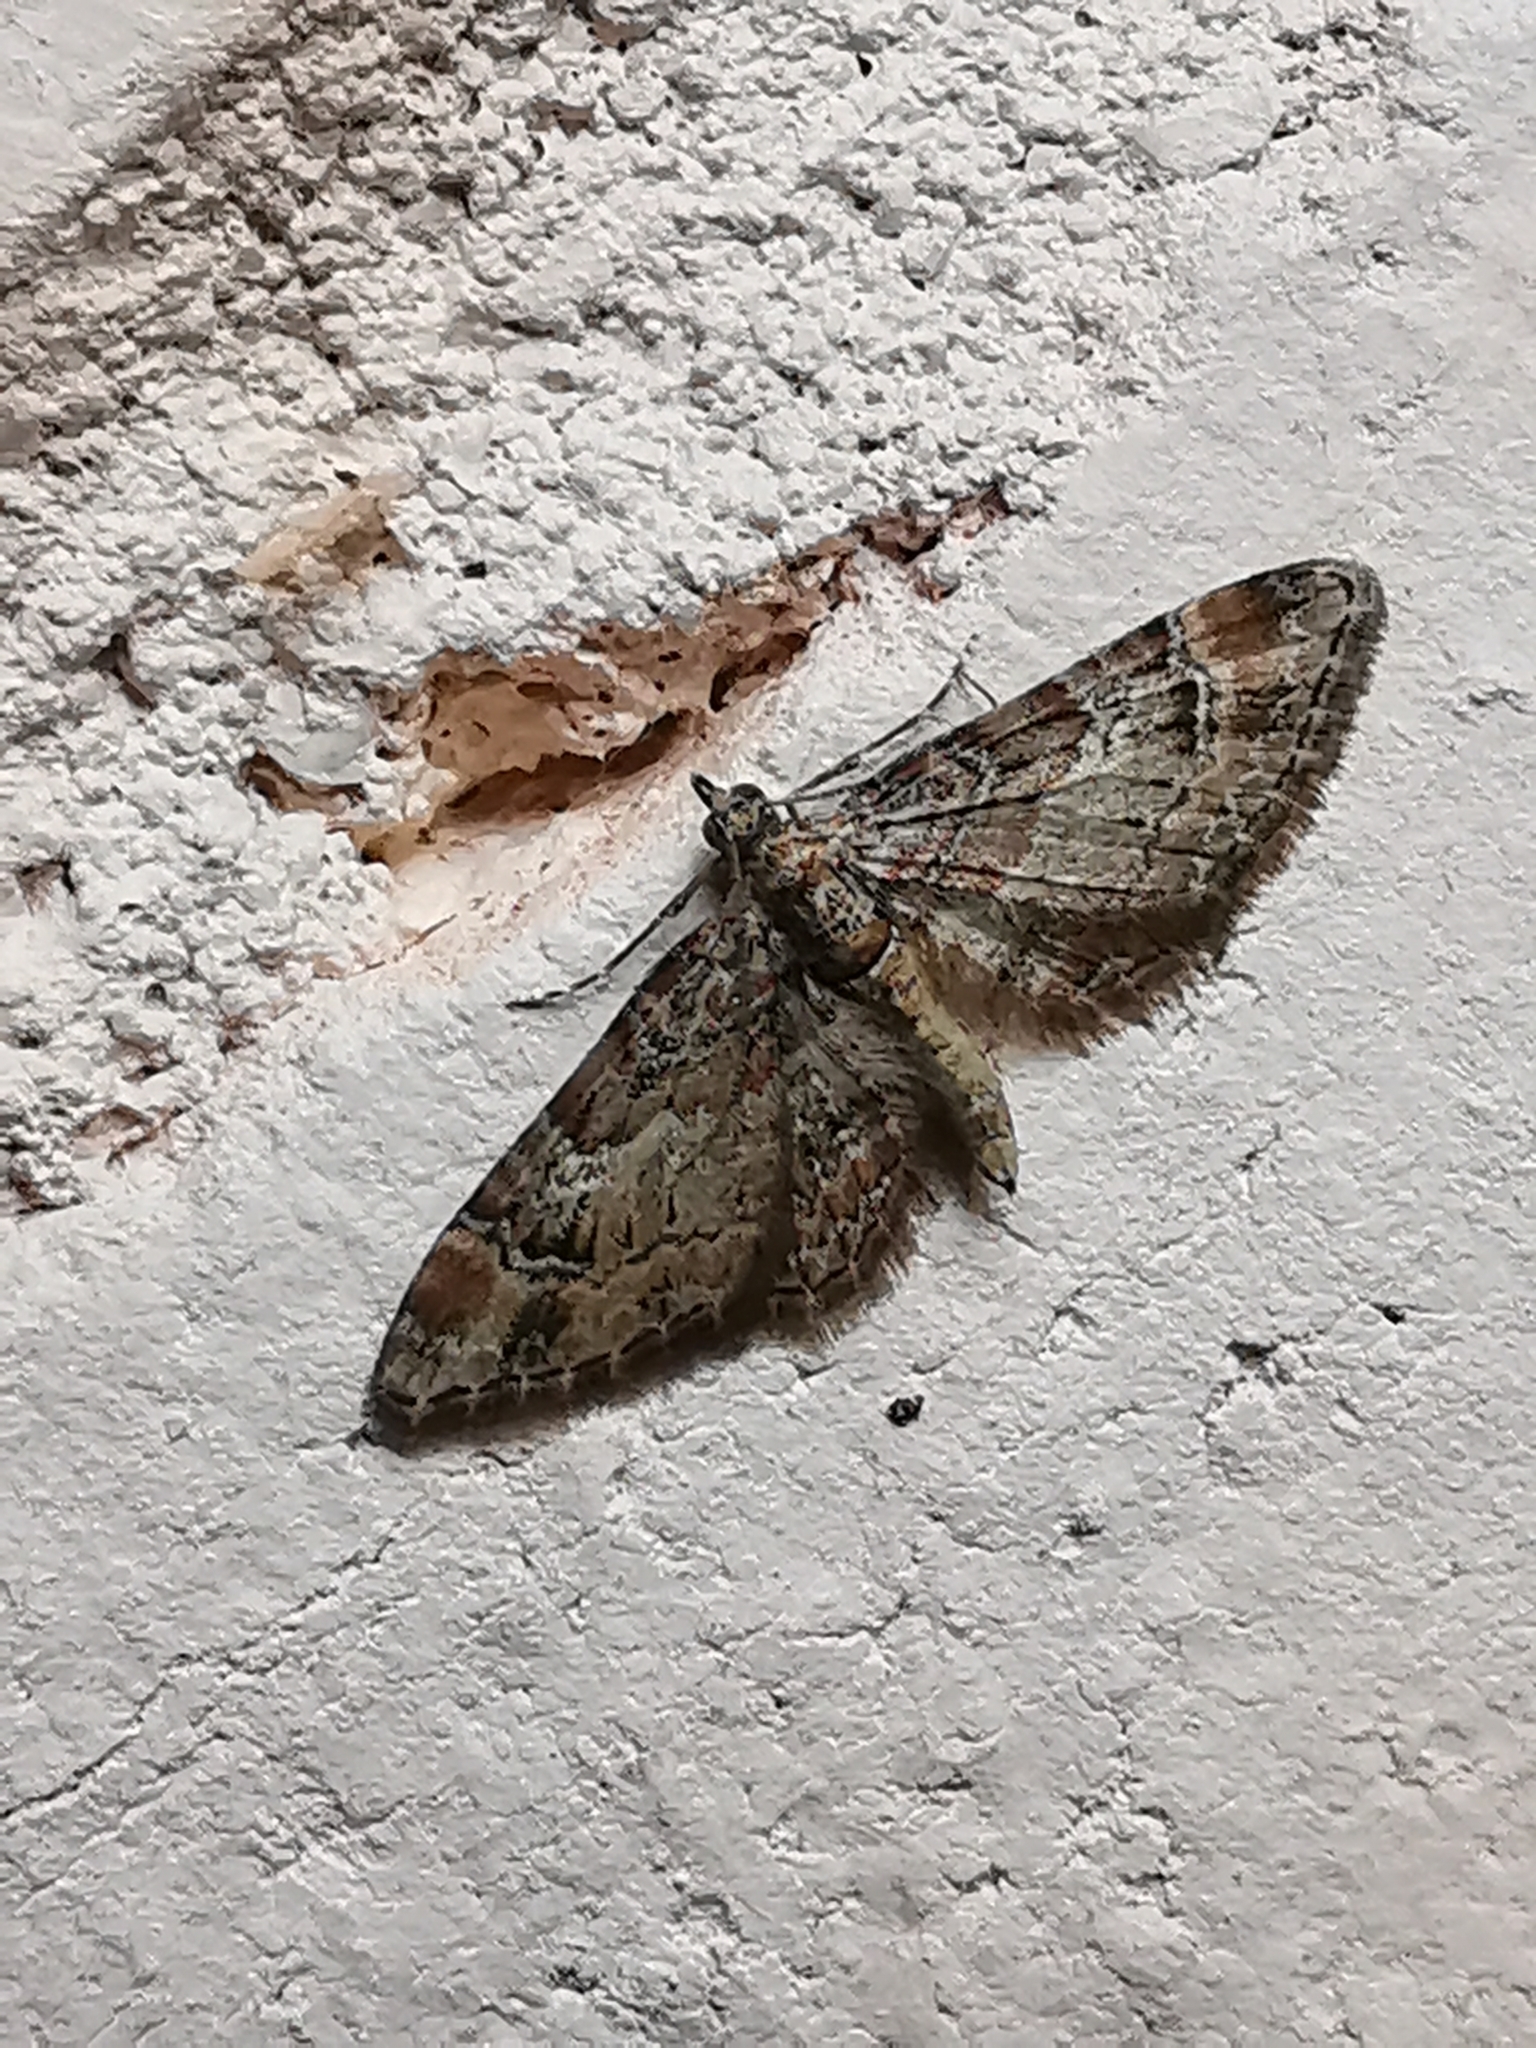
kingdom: Animalia
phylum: Arthropoda
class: Insecta
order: Lepidoptera
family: Geometridae
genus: Gymnoscelis
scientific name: Gymnoscelis rufifasciata
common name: Double-striped pug
